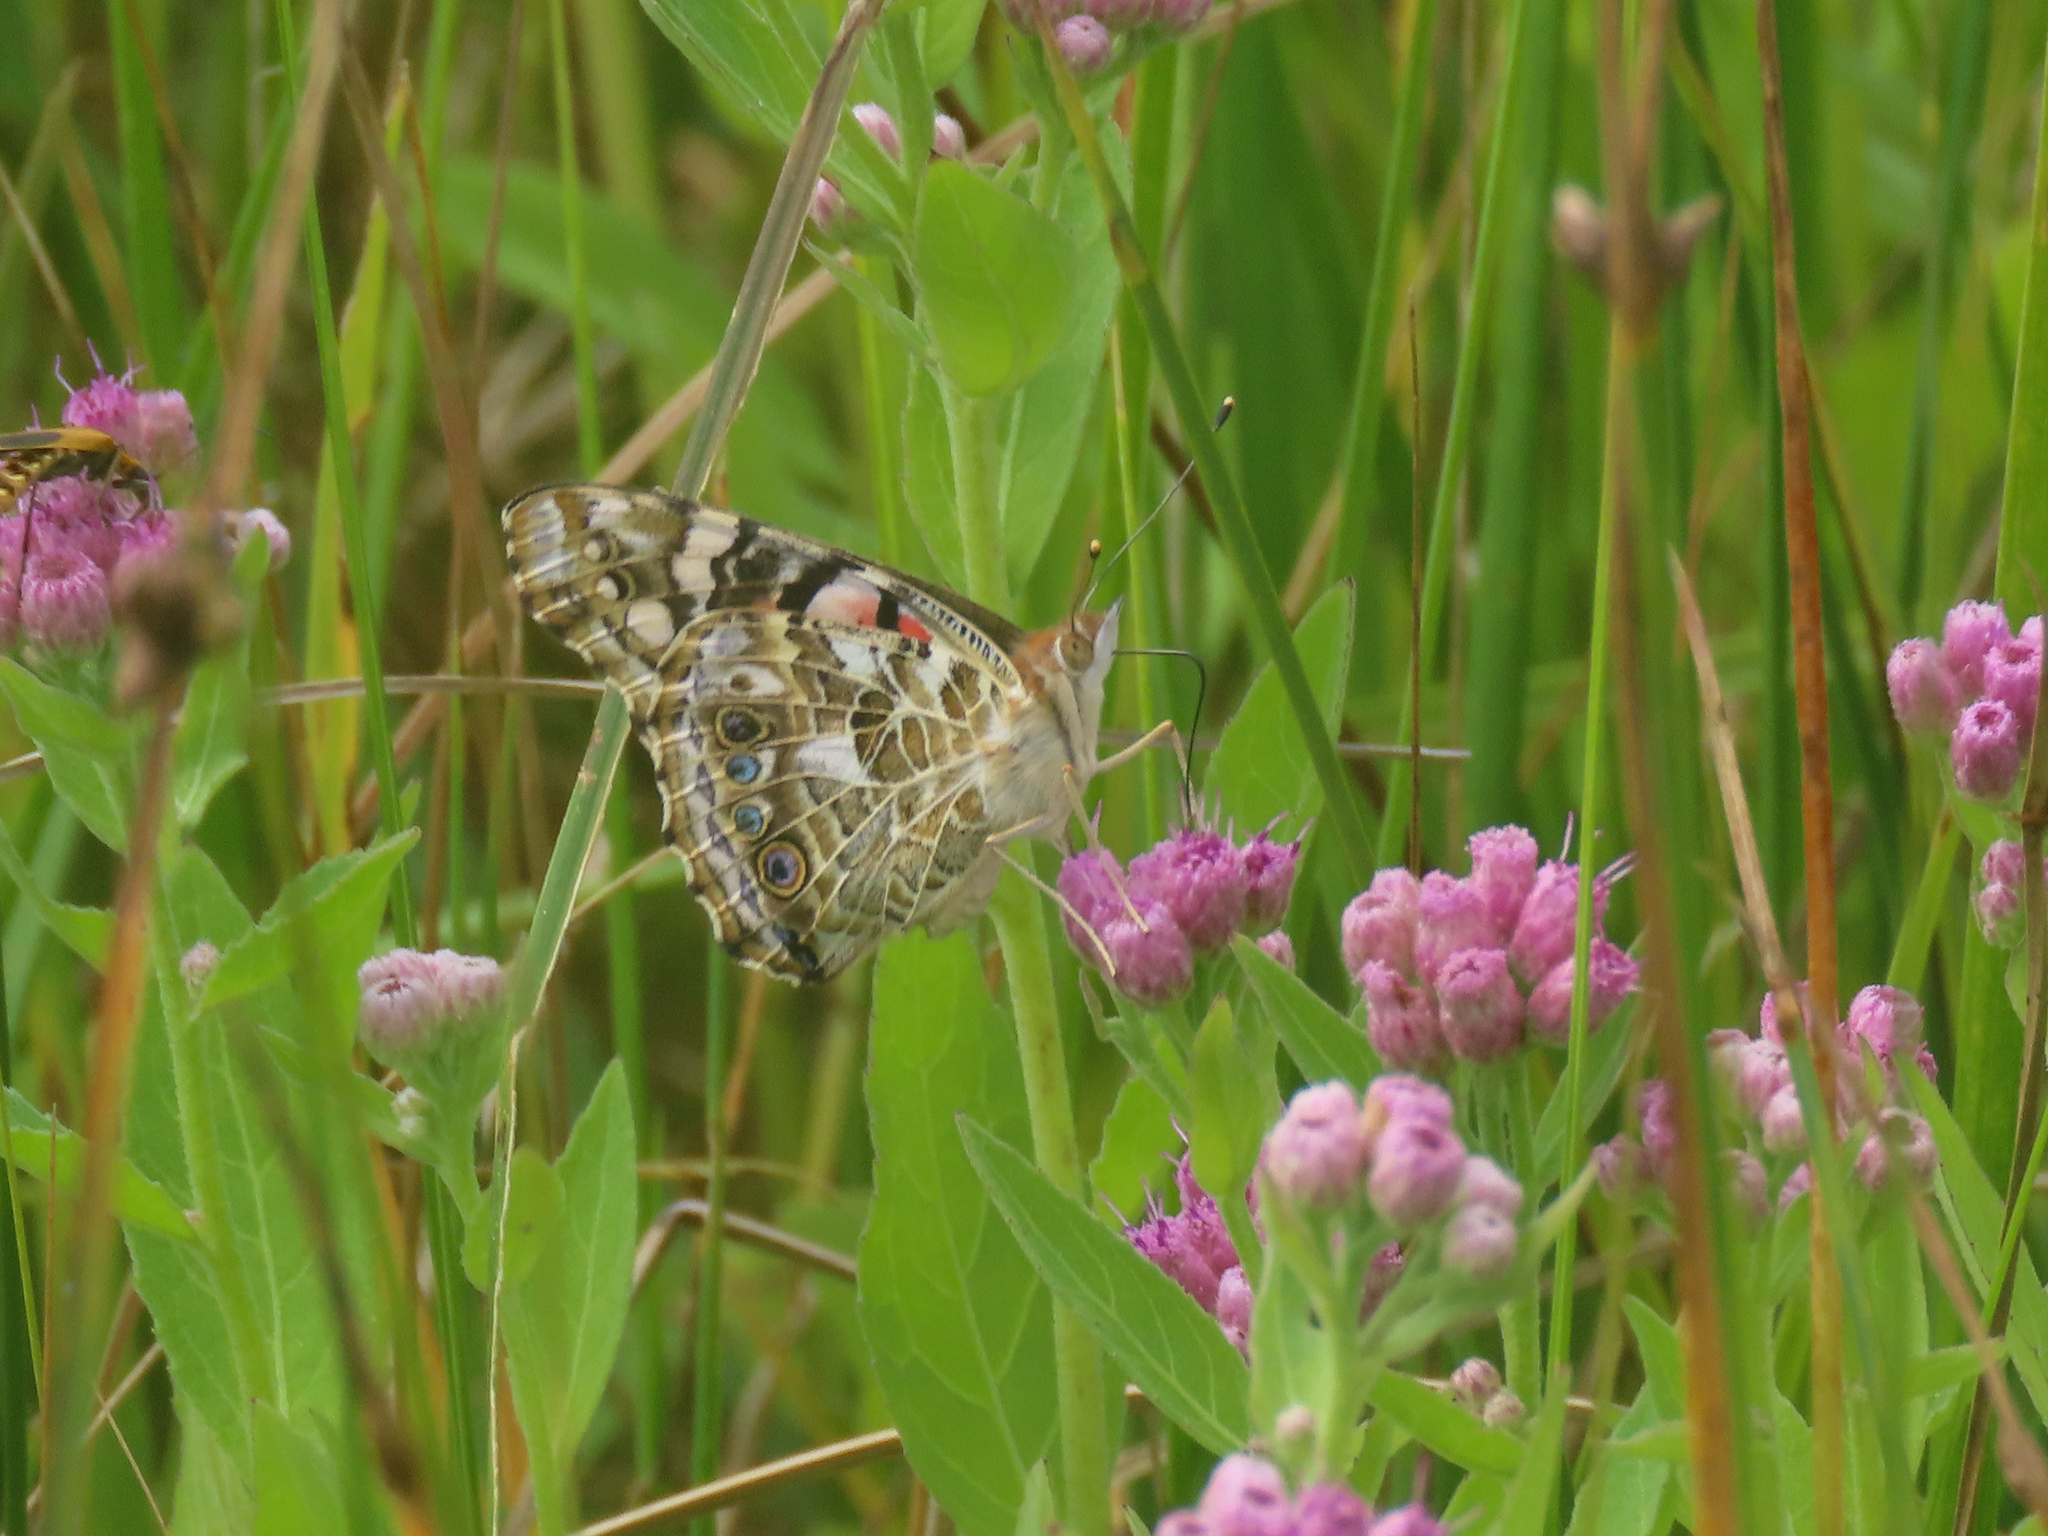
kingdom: Animalia
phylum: Arthropoda
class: Insecta
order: Lepidoptera
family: Nymphalidae
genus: Vanessa
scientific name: Vanessa cardui
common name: Painted lady
